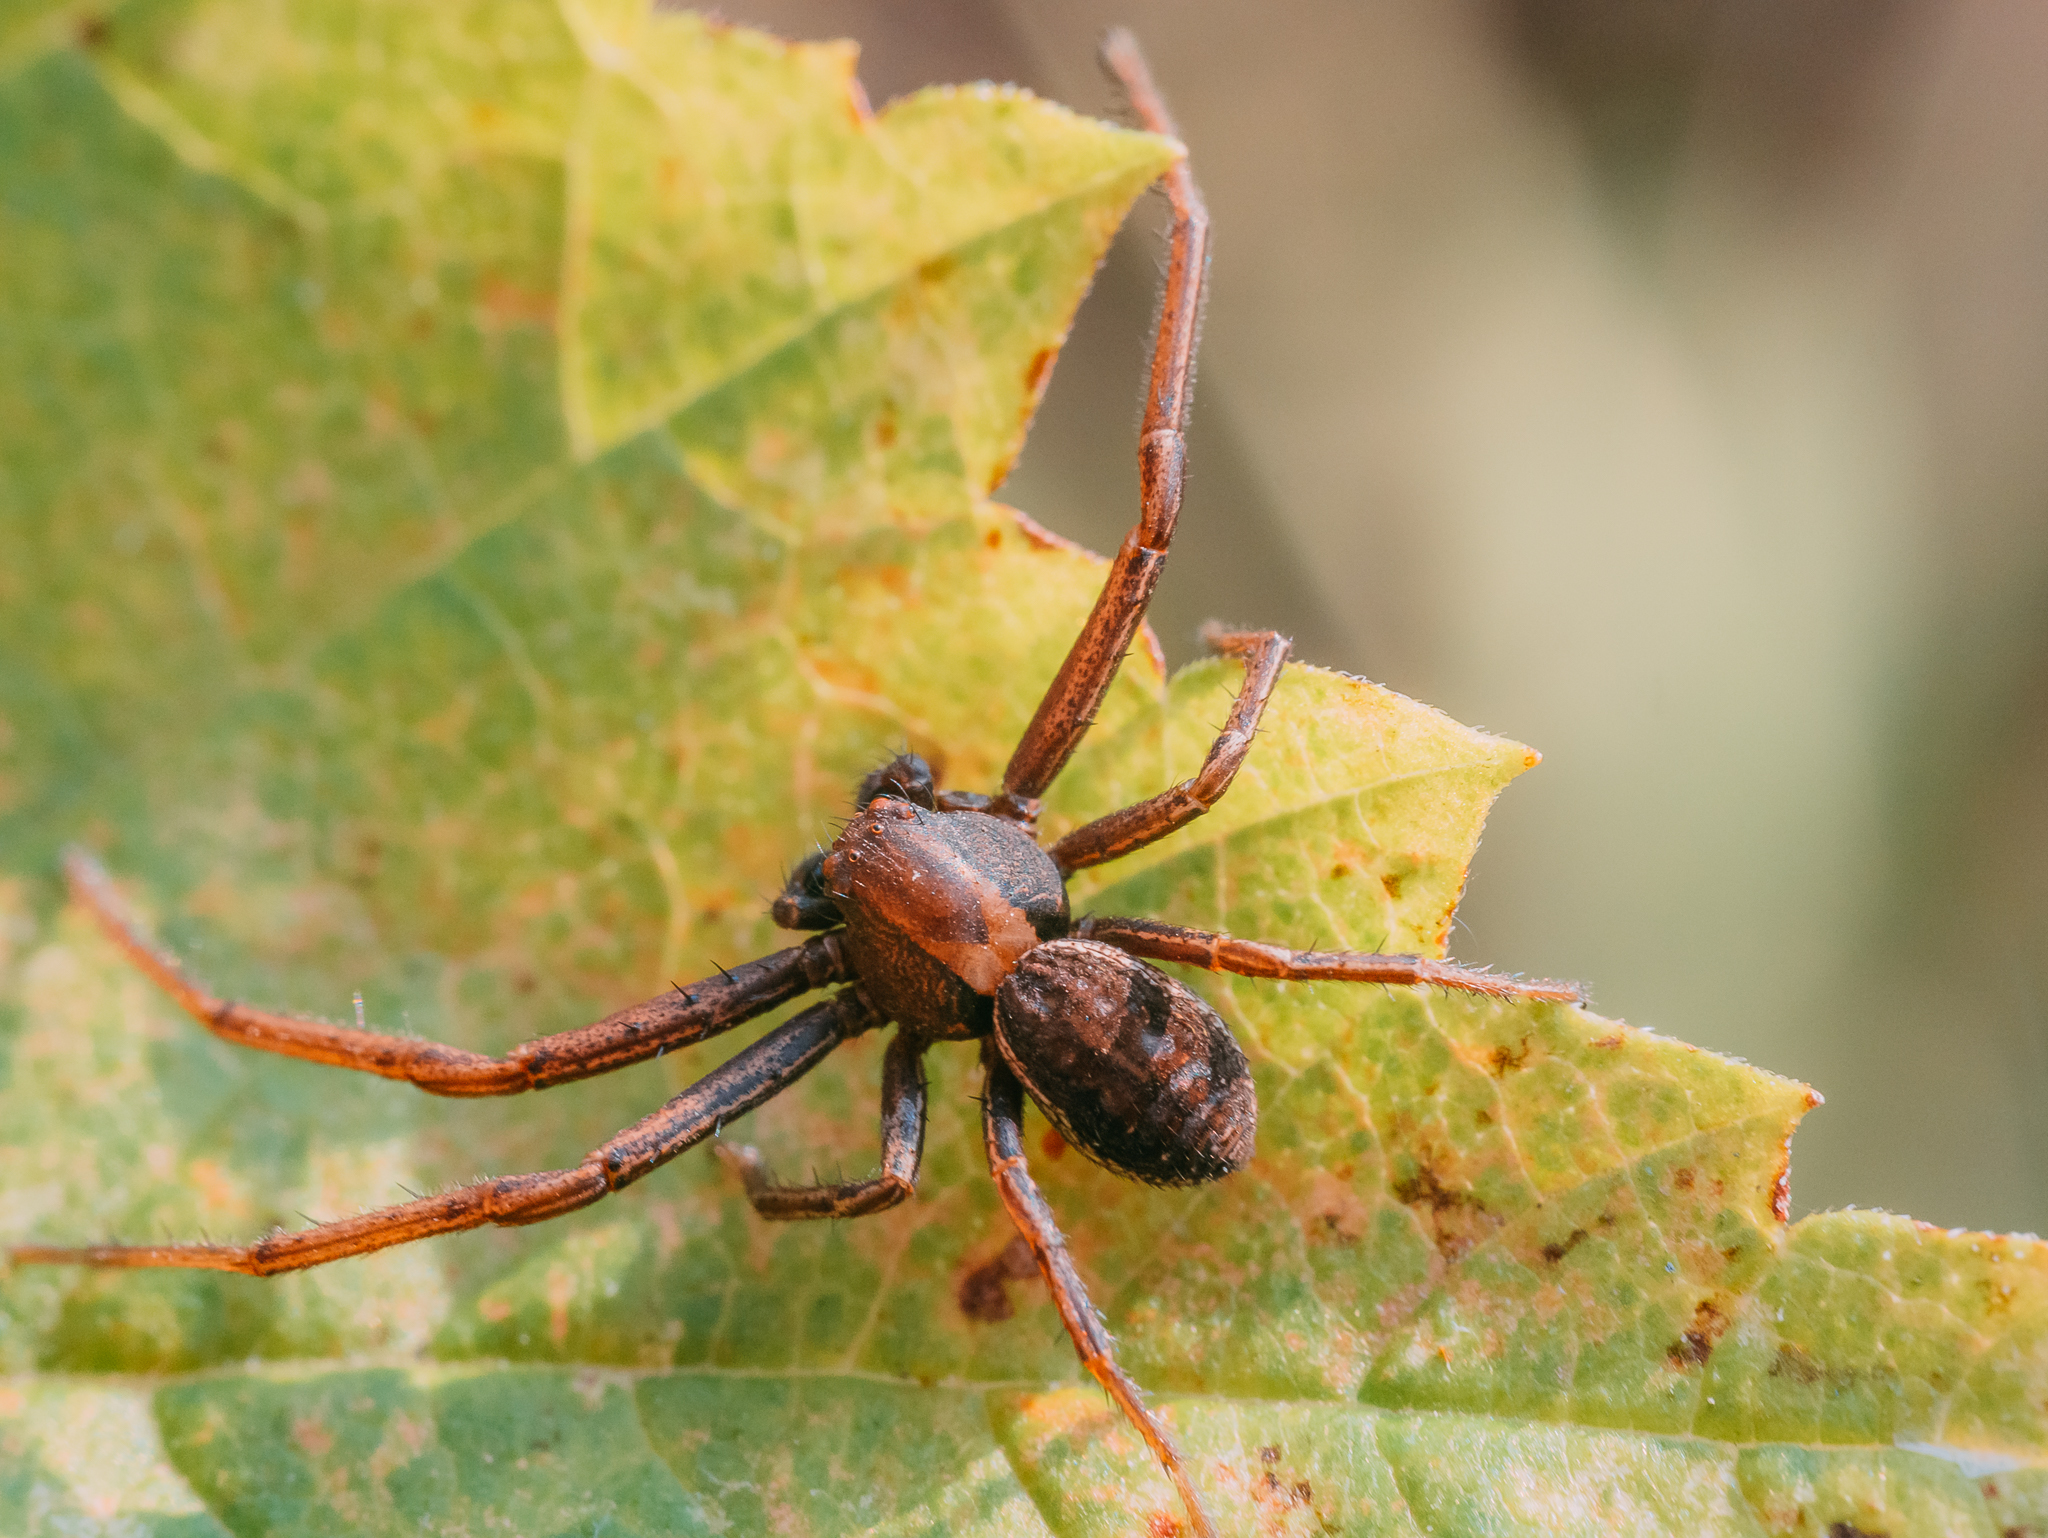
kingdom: Animalia
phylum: Arthropoda
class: Arachnida
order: Araneae
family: Thomisidae
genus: Spiracme
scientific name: Spiracme striatipes
